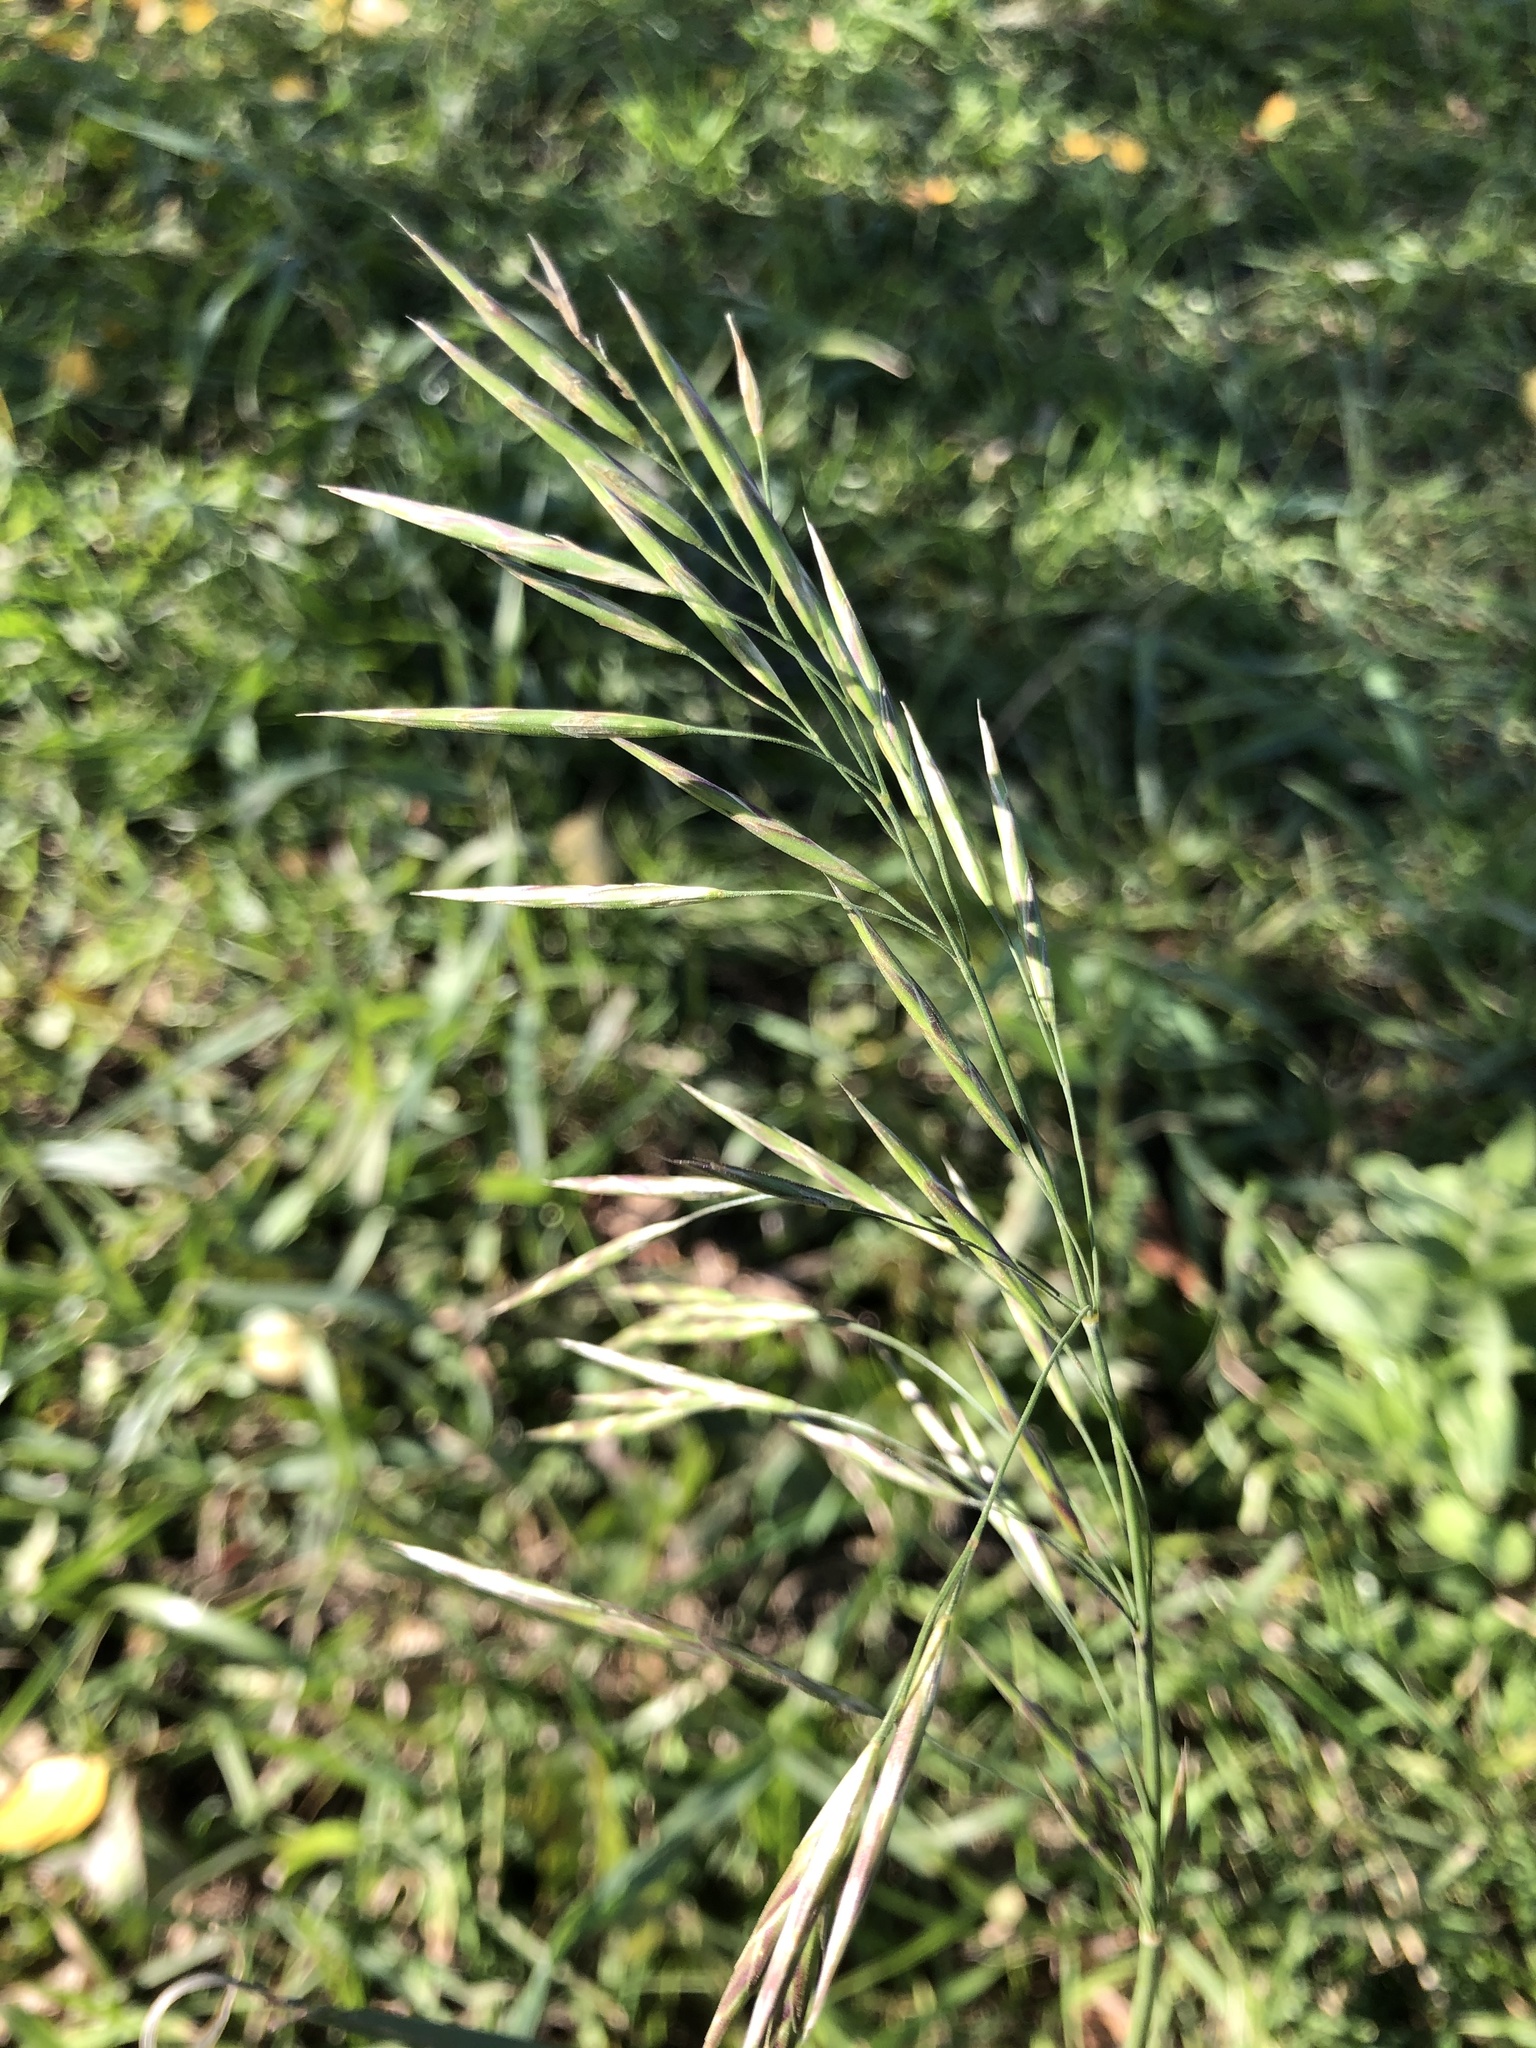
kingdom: Plantae
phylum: Tracheophyta
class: Liliopsida
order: Poales
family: Poaceae
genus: Bromus
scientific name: Bromus inermis
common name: Smooth brome
